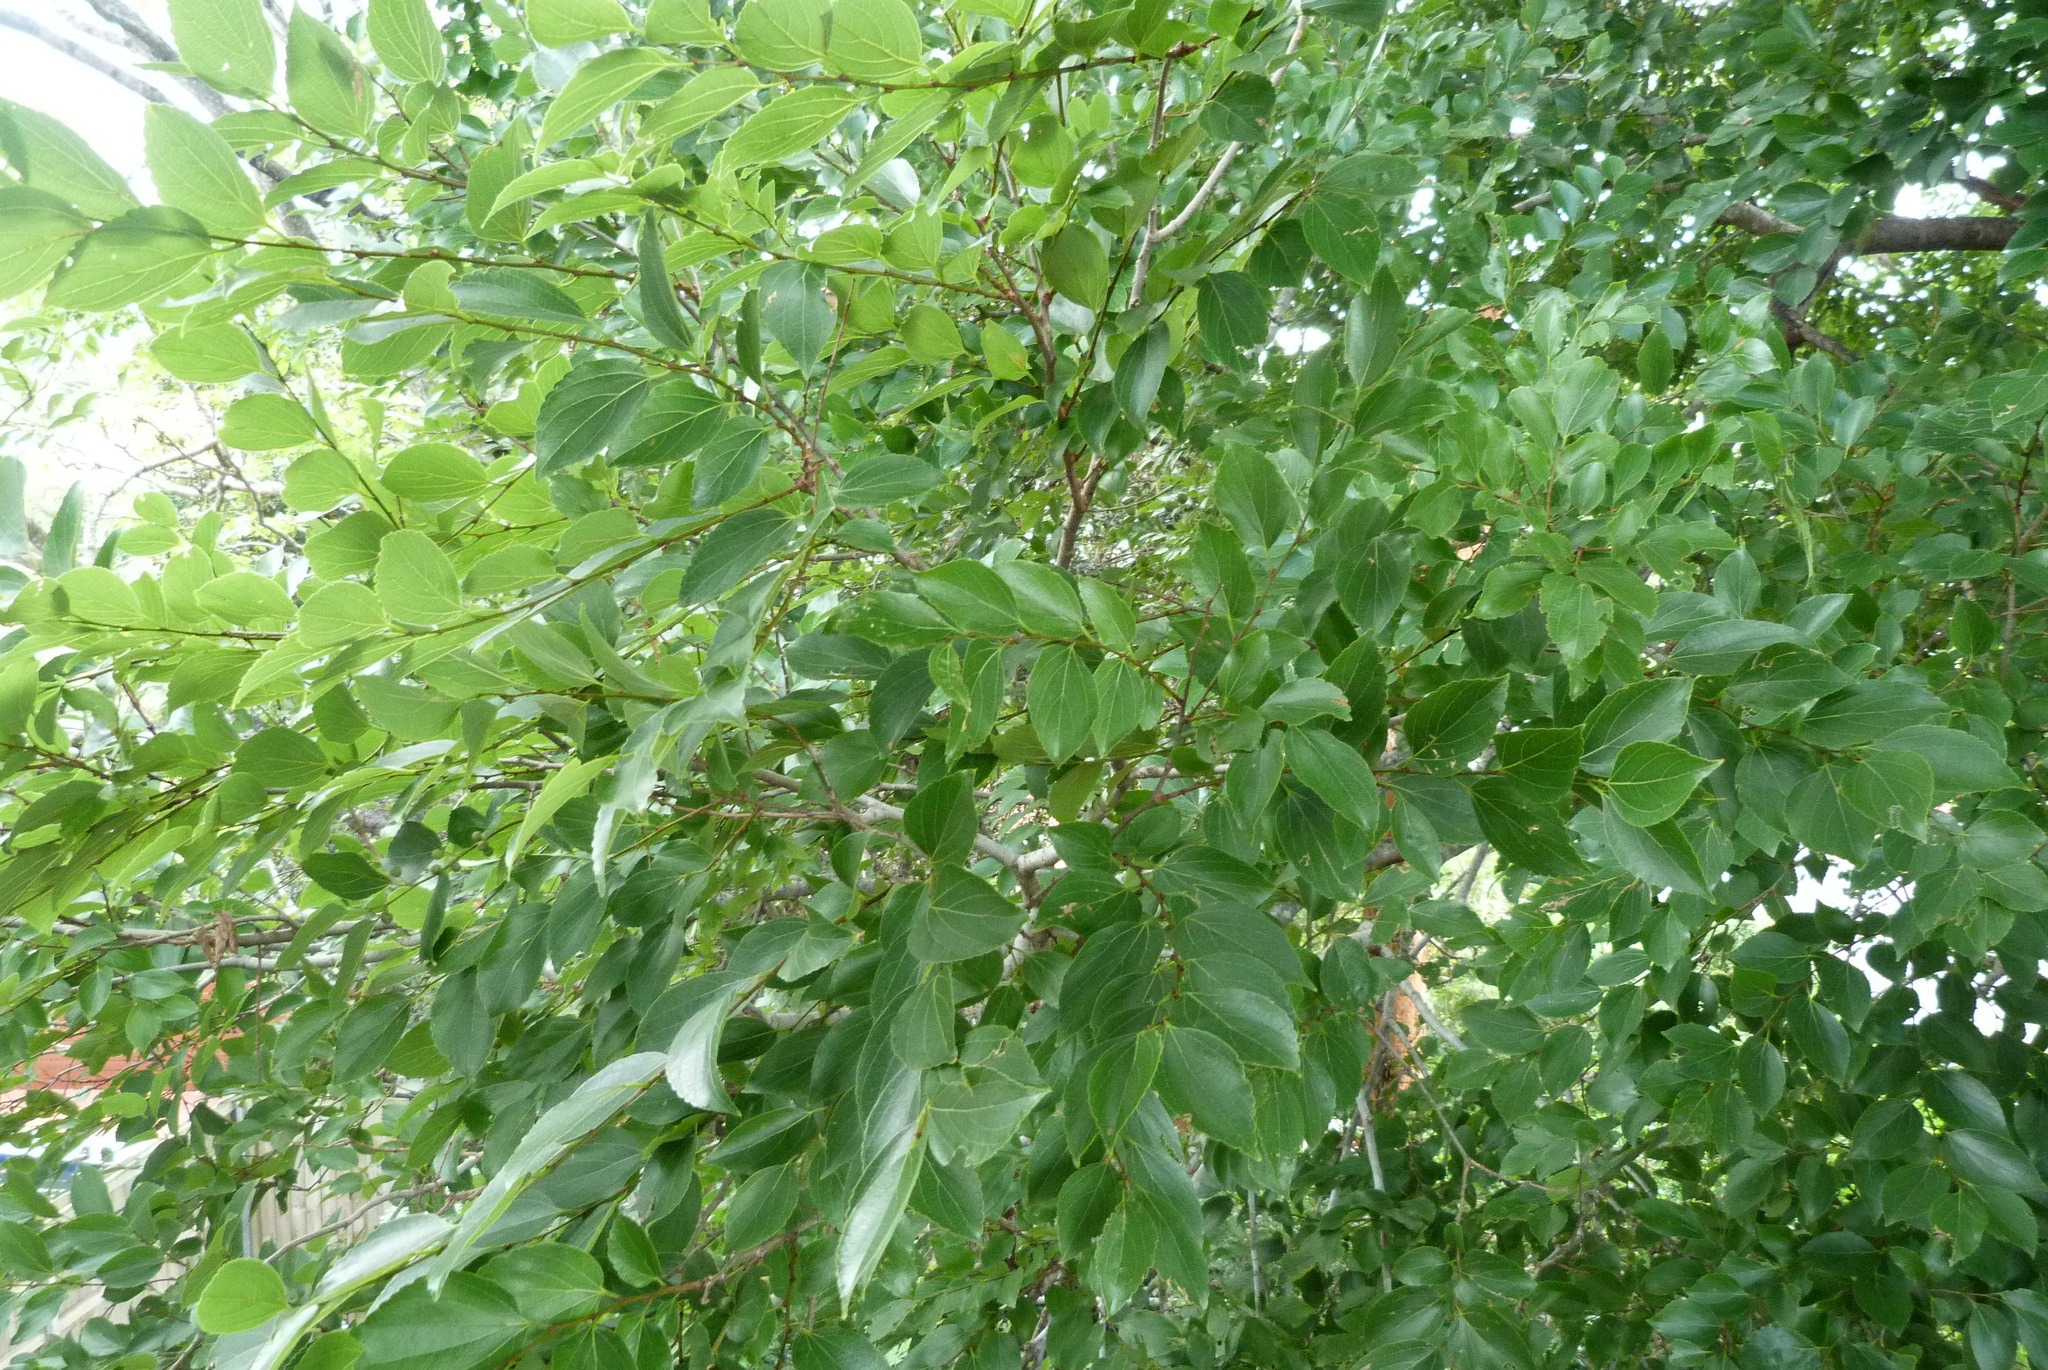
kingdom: Plantae
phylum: Tracheophyta
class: Magnoliopsida
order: Rosales
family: Cannabaceae
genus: Celtis
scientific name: Celtis sinensis
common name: Chinese hackberry
